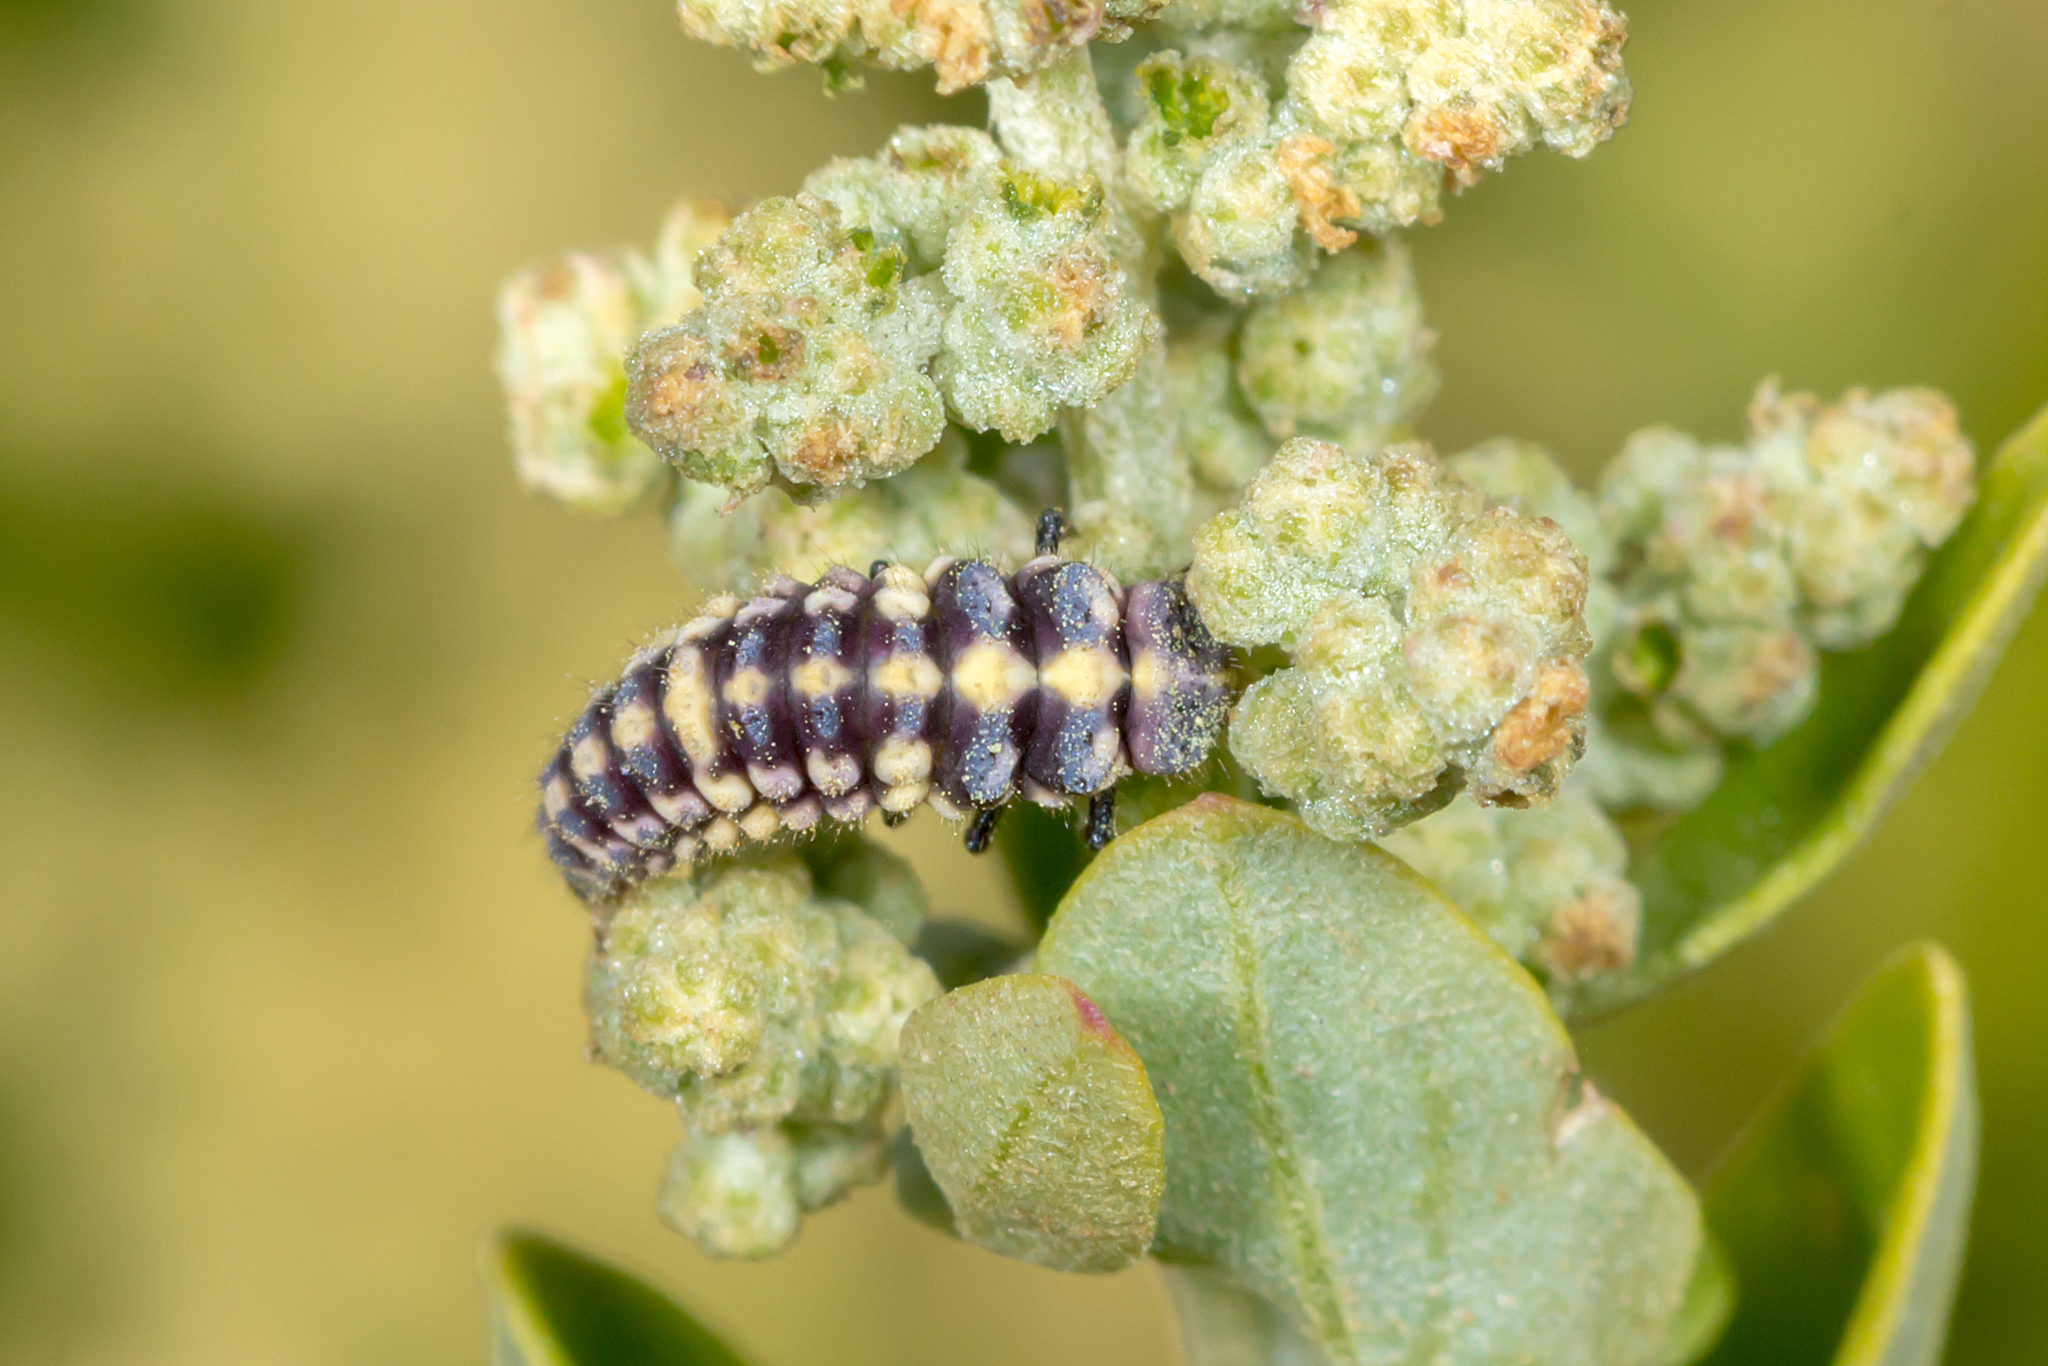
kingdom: Animalia
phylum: Arthropoda
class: Insecta
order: Coleoptera
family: Coccinellidae
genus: Micraspis
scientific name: Micraspis
